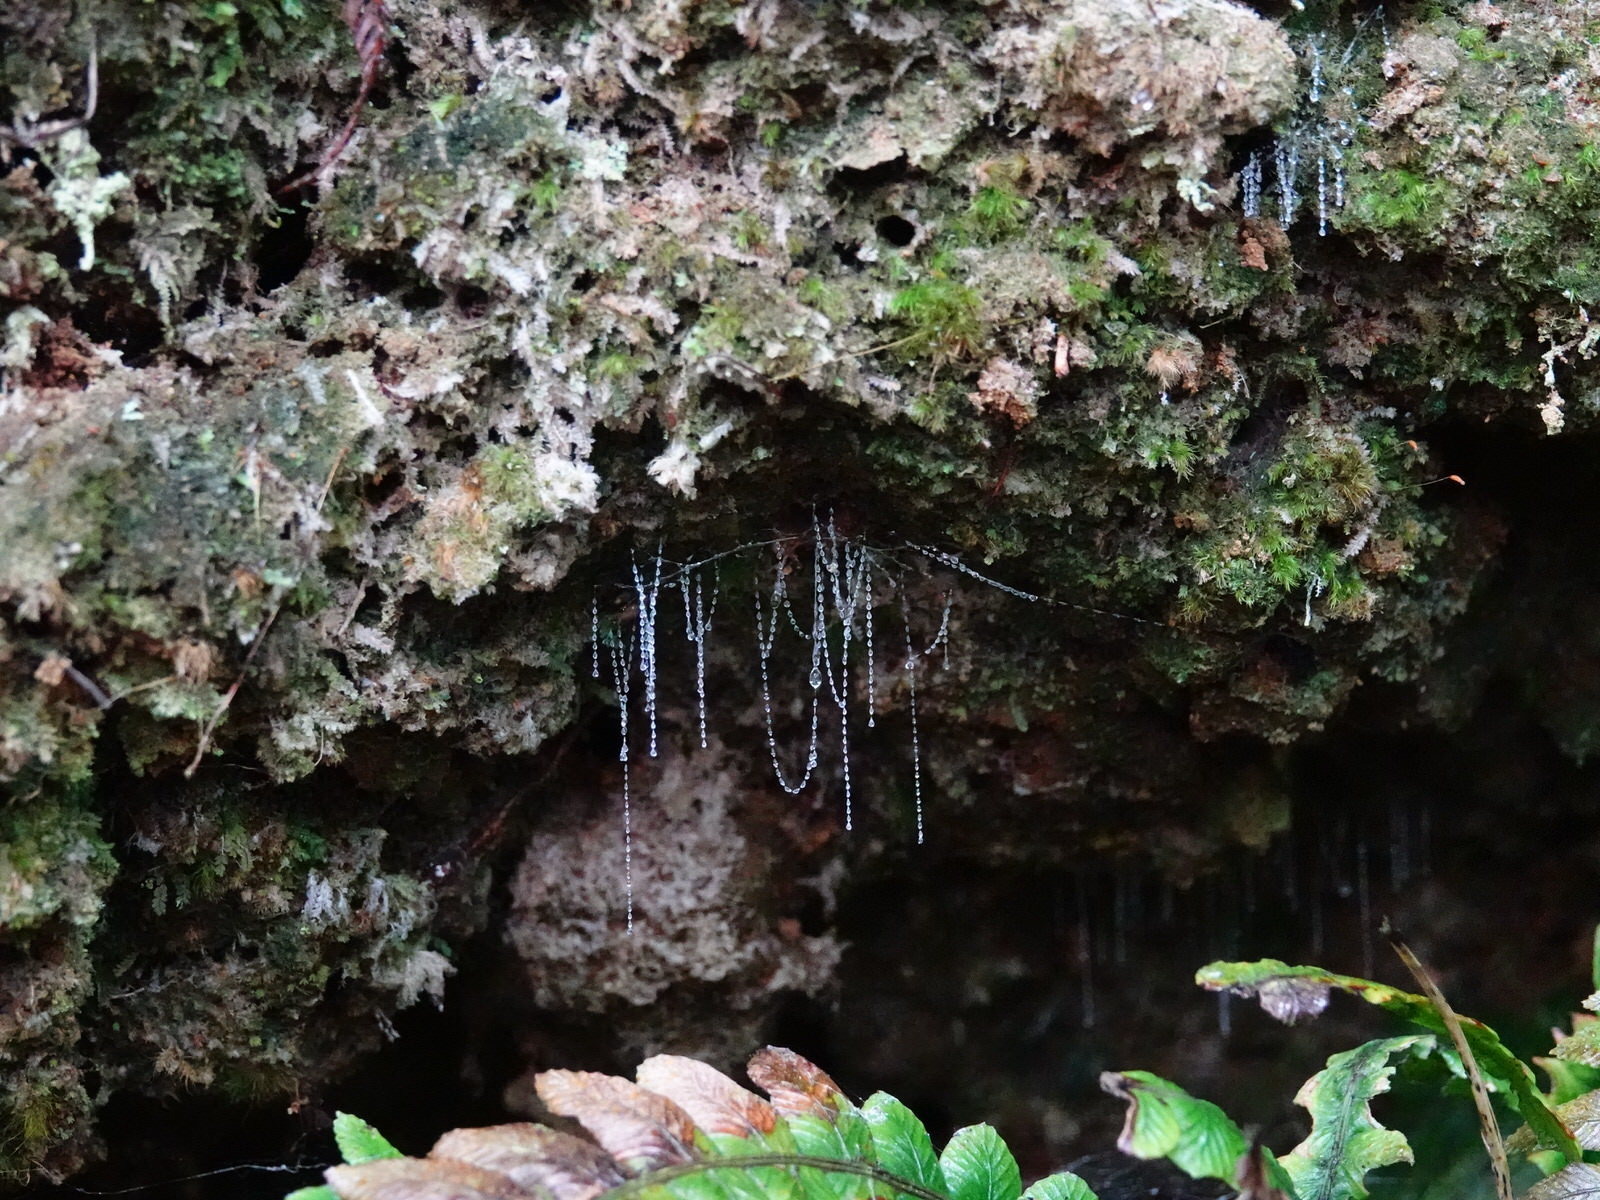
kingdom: Animalia
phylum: Arthropoda
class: Insecta
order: Diptera
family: Keroplatidae
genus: Arachnocampa
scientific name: Arachnocampa luminosa
